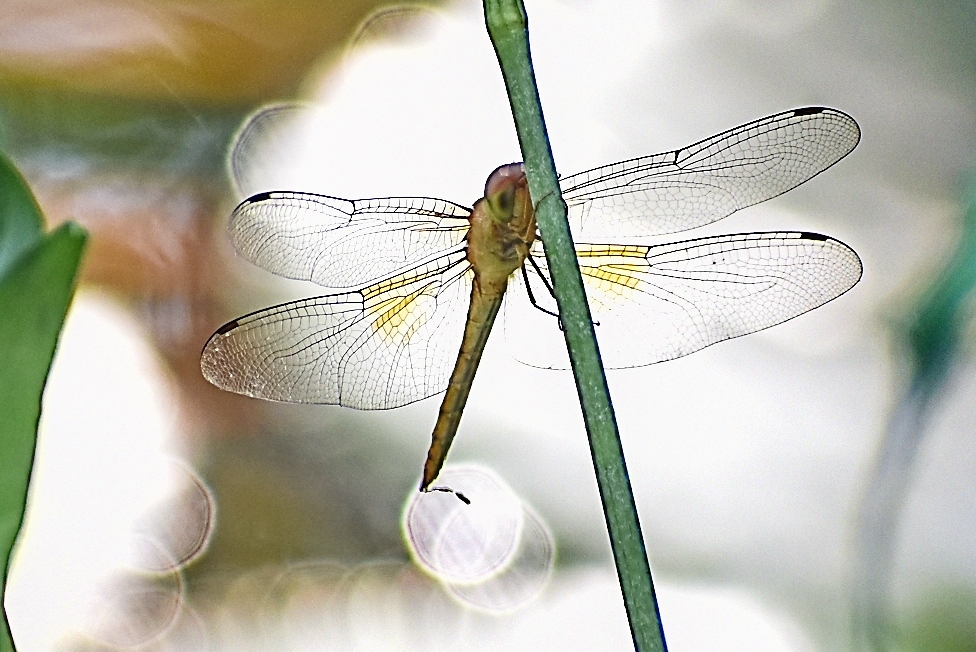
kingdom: Animalia
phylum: Arthropoda
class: Insecta
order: Odonata
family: Libellulidae
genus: Tholymis
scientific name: Tholymis tillarga
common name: Coral-tailed cloud wing
